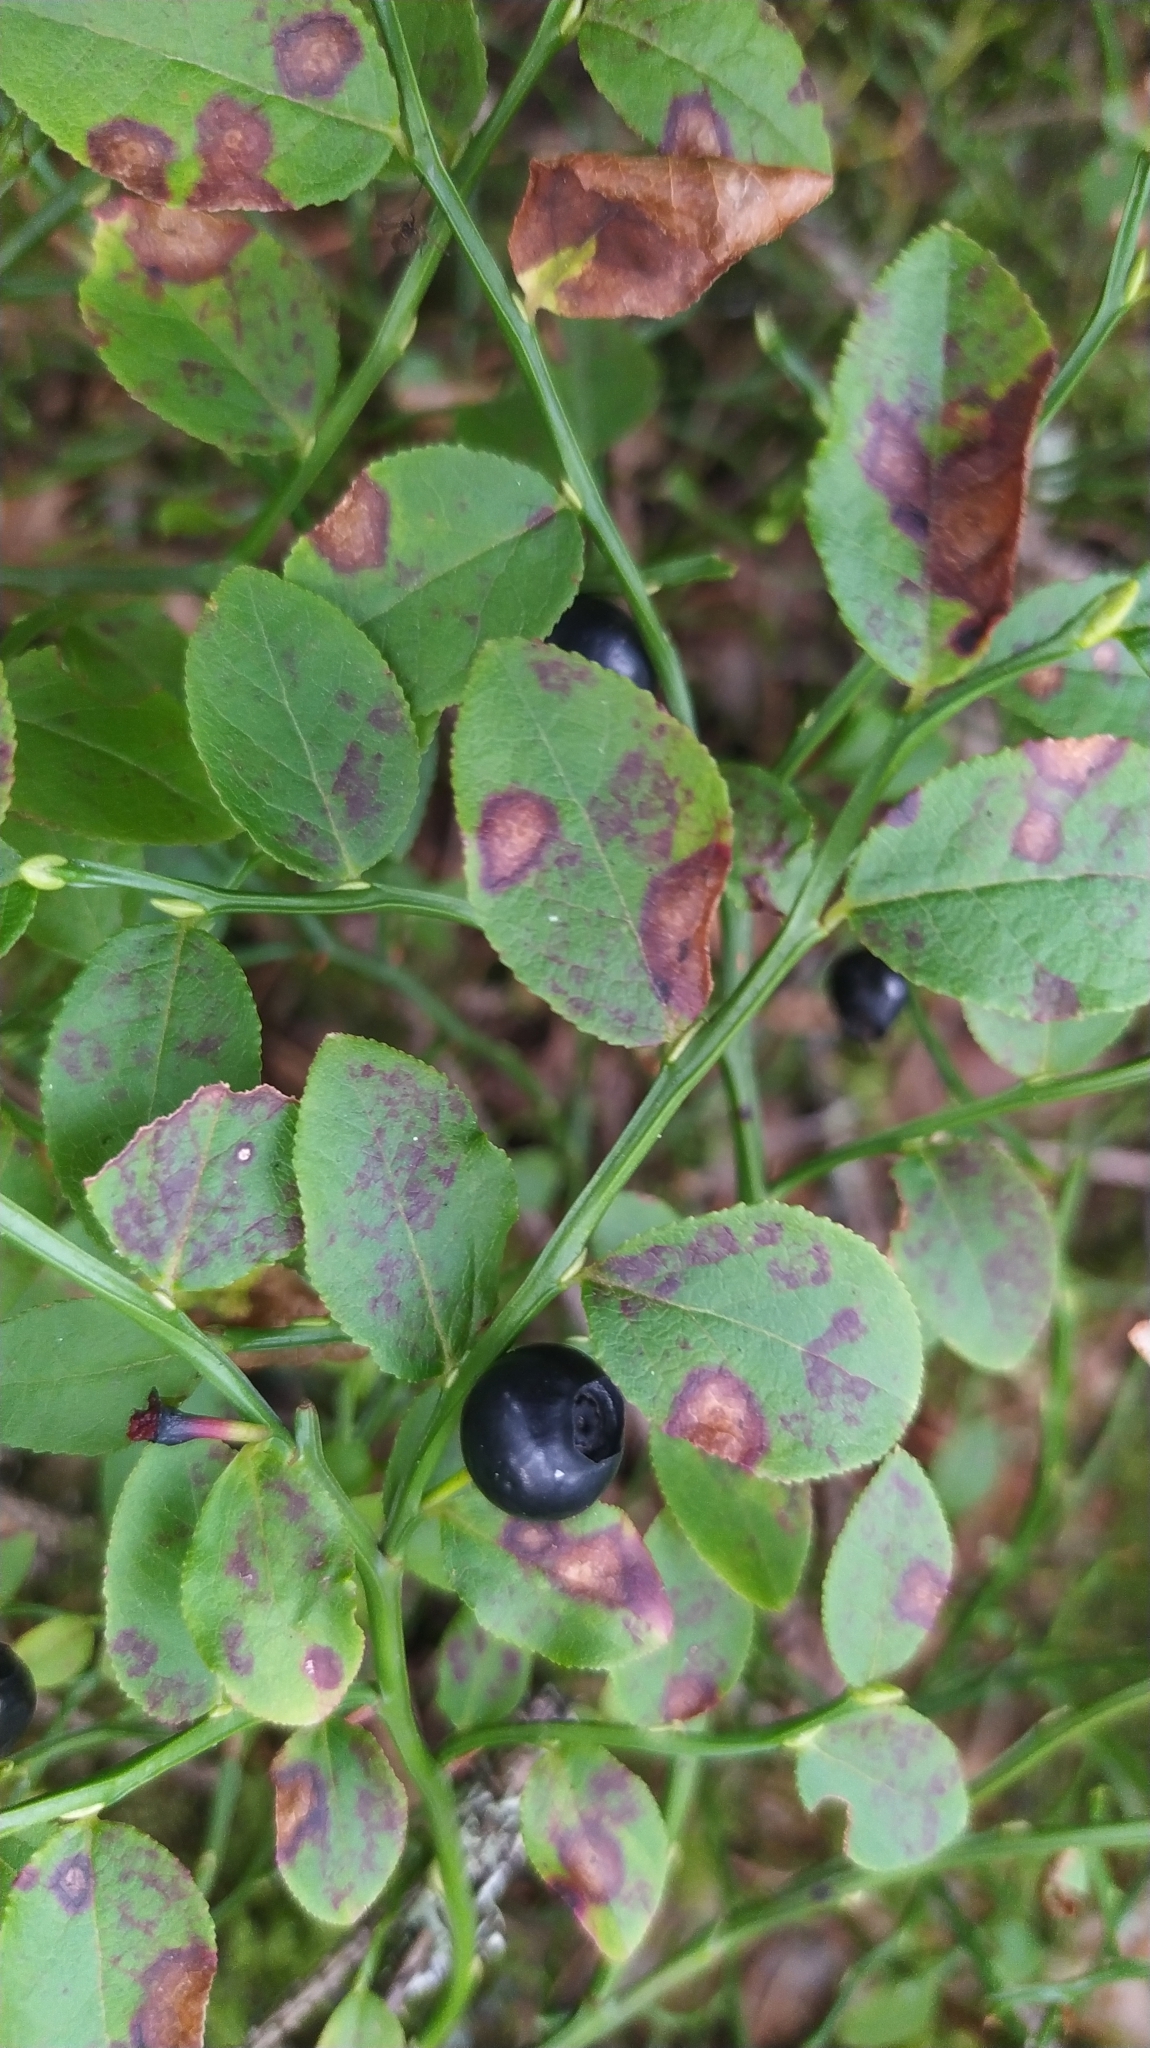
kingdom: Plantae
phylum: Tracheophyta
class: Magnoliopsida
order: Ericales
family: Ericaceae
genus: Vaccinium
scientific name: Vaccinium myrtillus
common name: Bilberry
